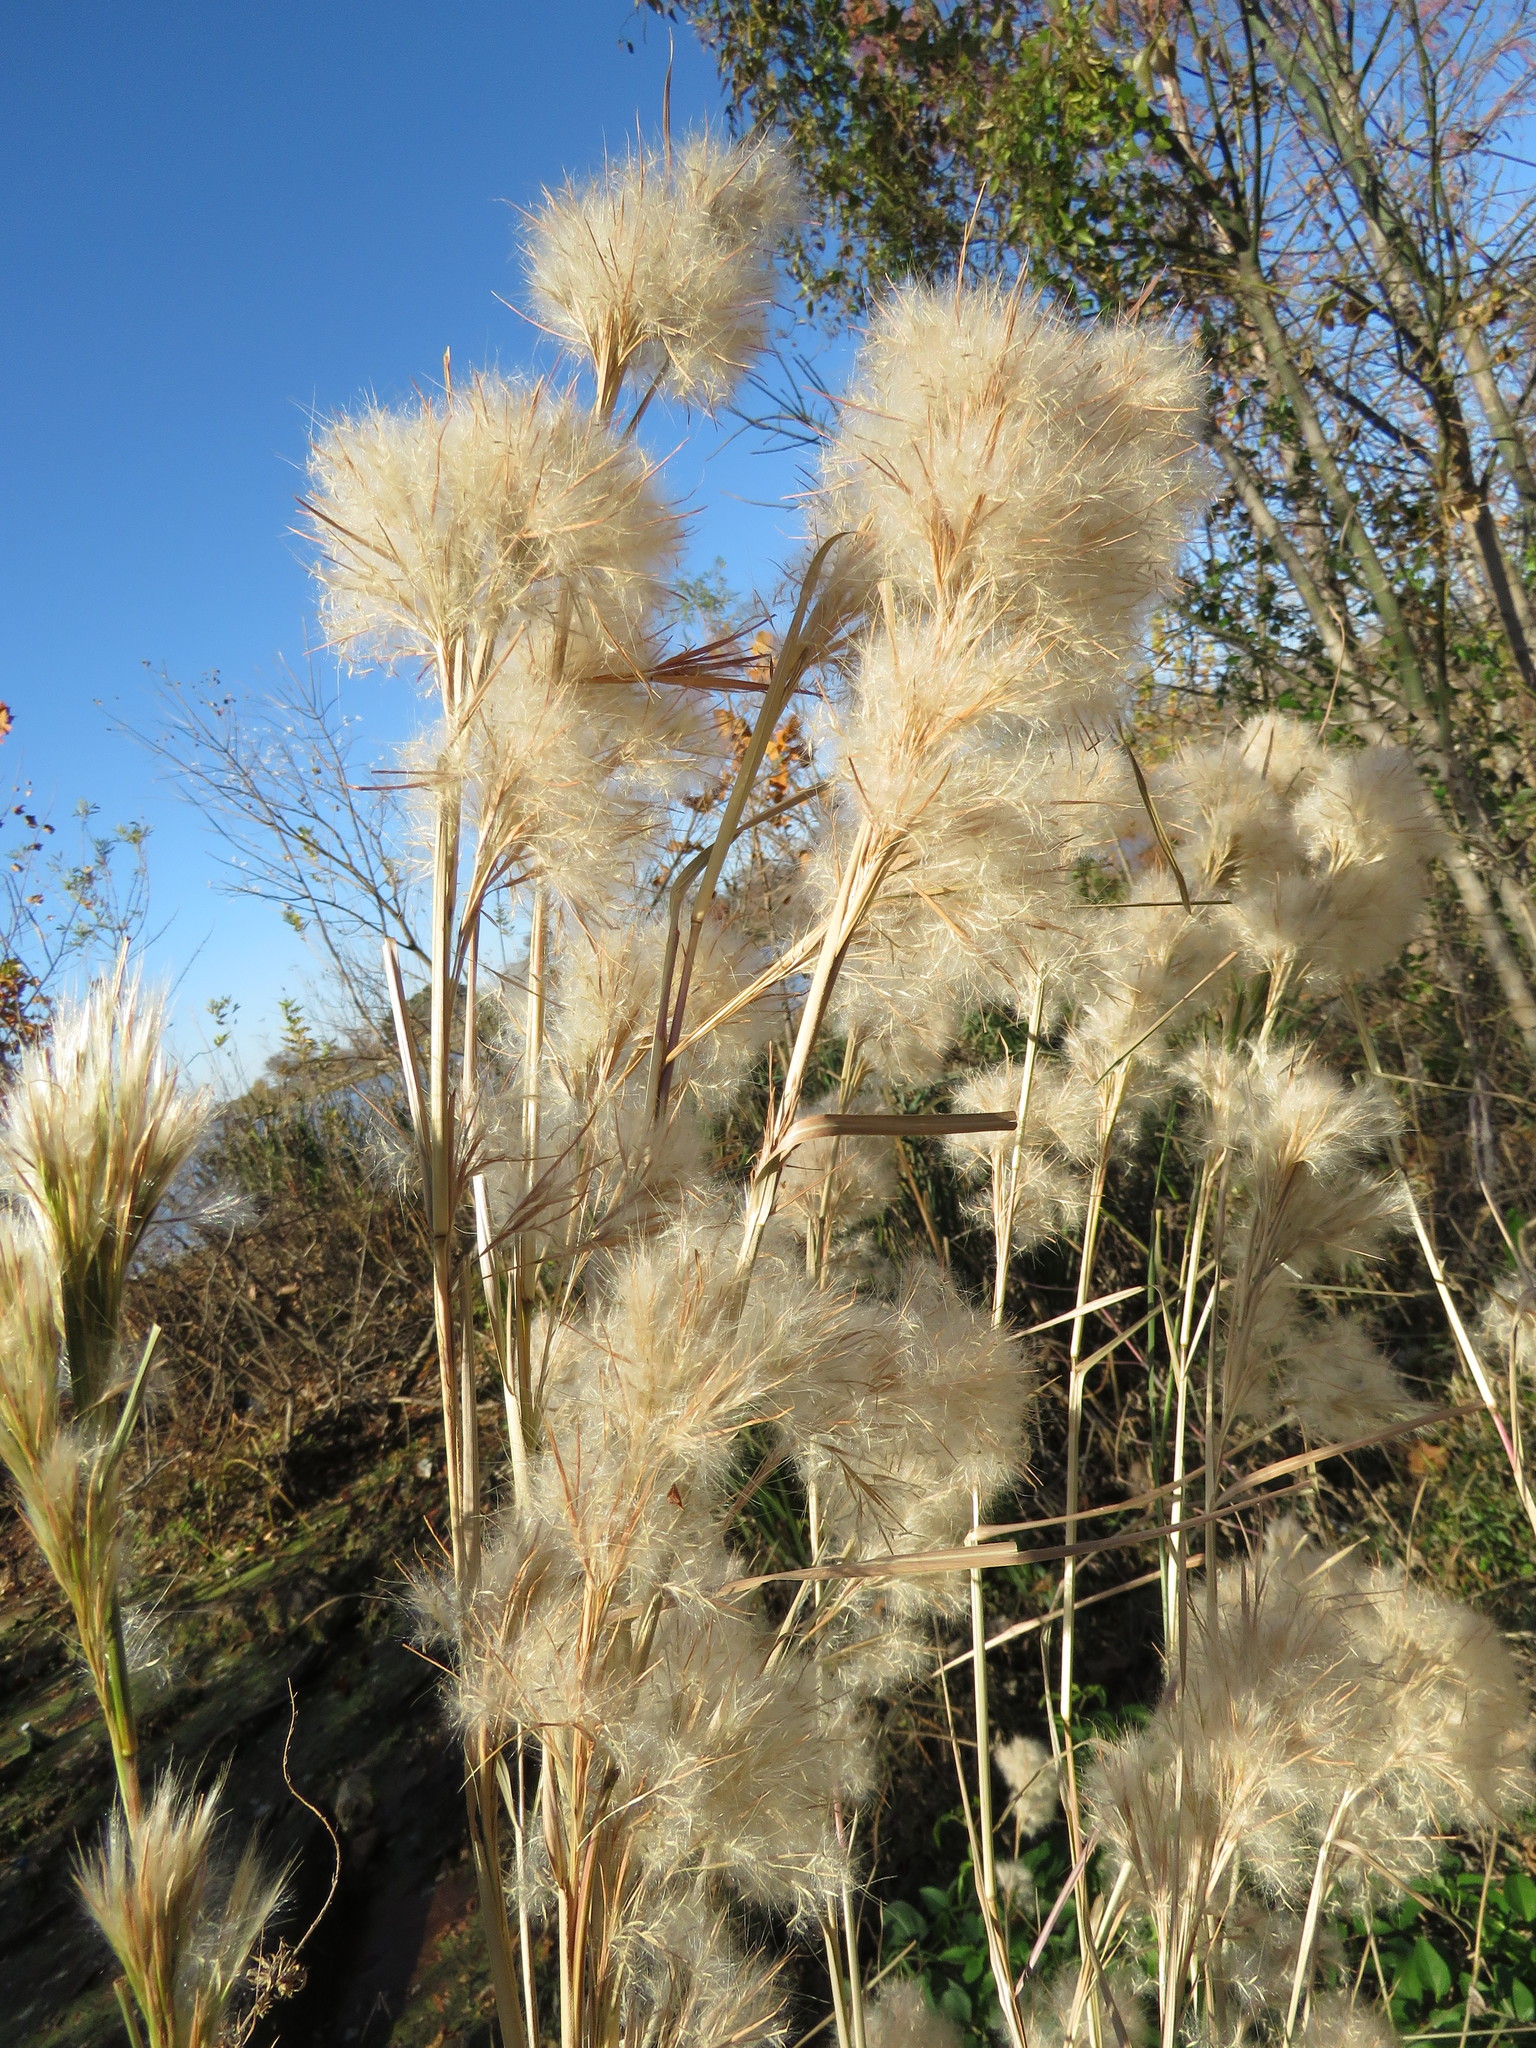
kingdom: Plantae
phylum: Tracheophyta
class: Liliopsida
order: Poales
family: Poaceae
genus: Andropogon
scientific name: Andropogon tenuispatheus
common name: Bushy bluestem
